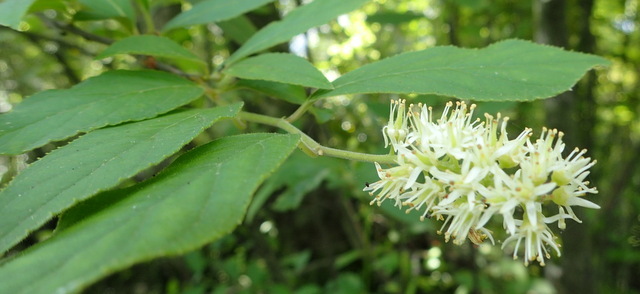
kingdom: Plantae
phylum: Tracheophyta
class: Magnoliopsida
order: Saxifragales
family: Iteaceae
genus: Itea
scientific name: Itea virginica
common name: Sweetspire
